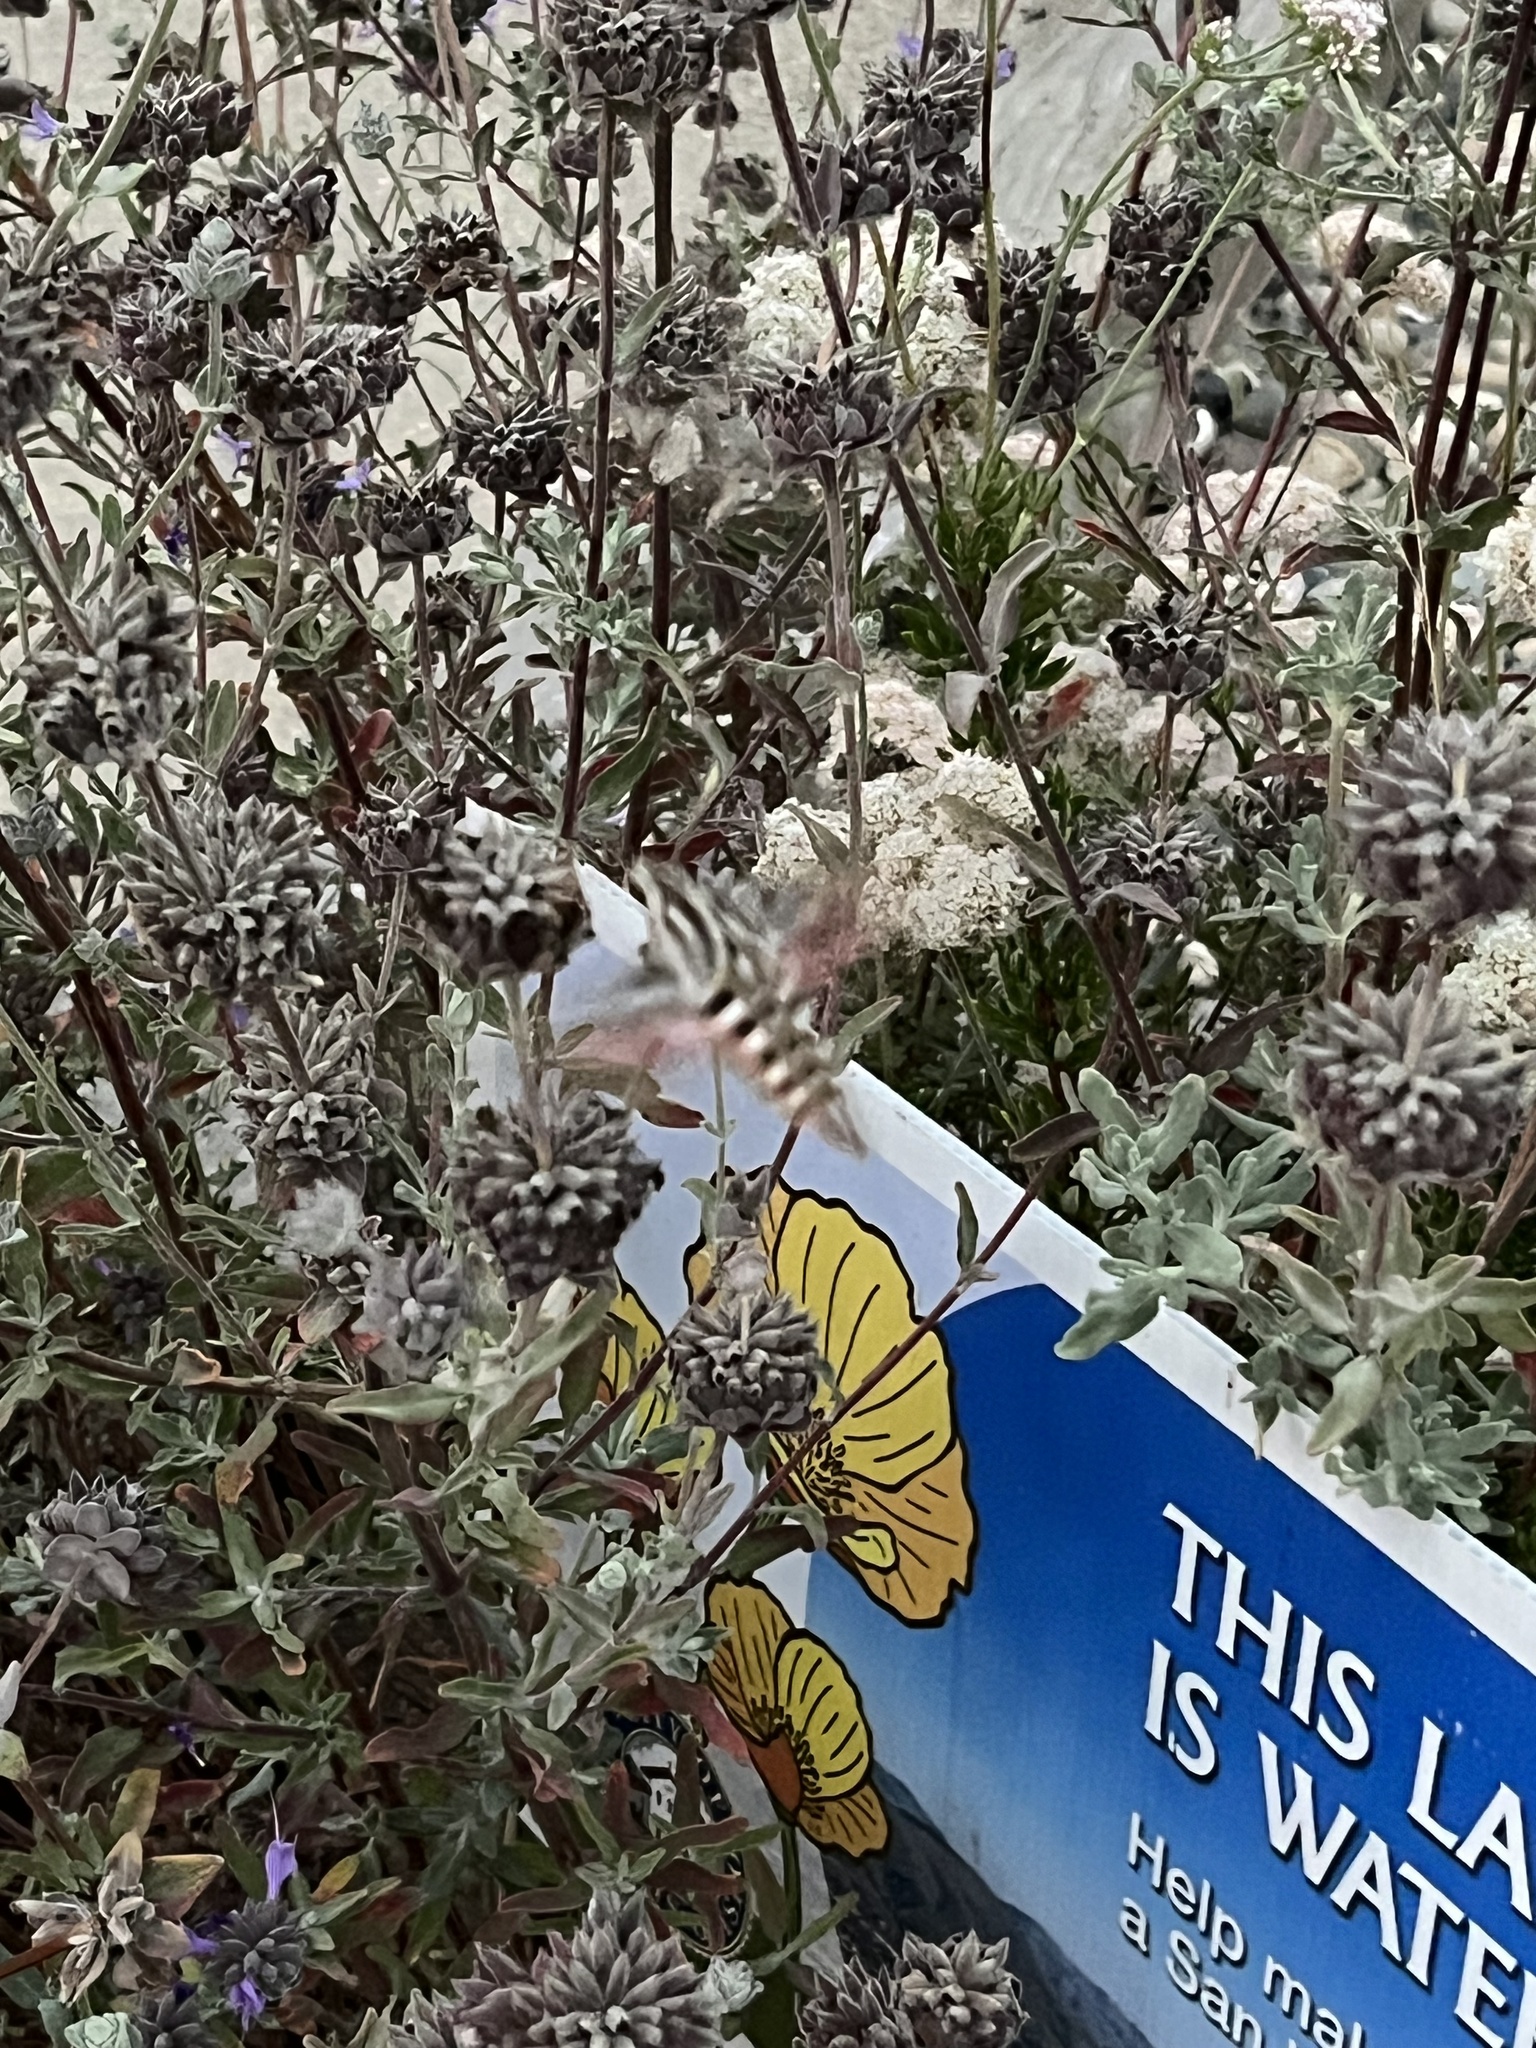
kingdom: Animalia
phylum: Arthropoda
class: Insecta
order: Lepidoptera
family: Sphingidae
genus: Hyles
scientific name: Hyles lineata
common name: White-lined sphinx
